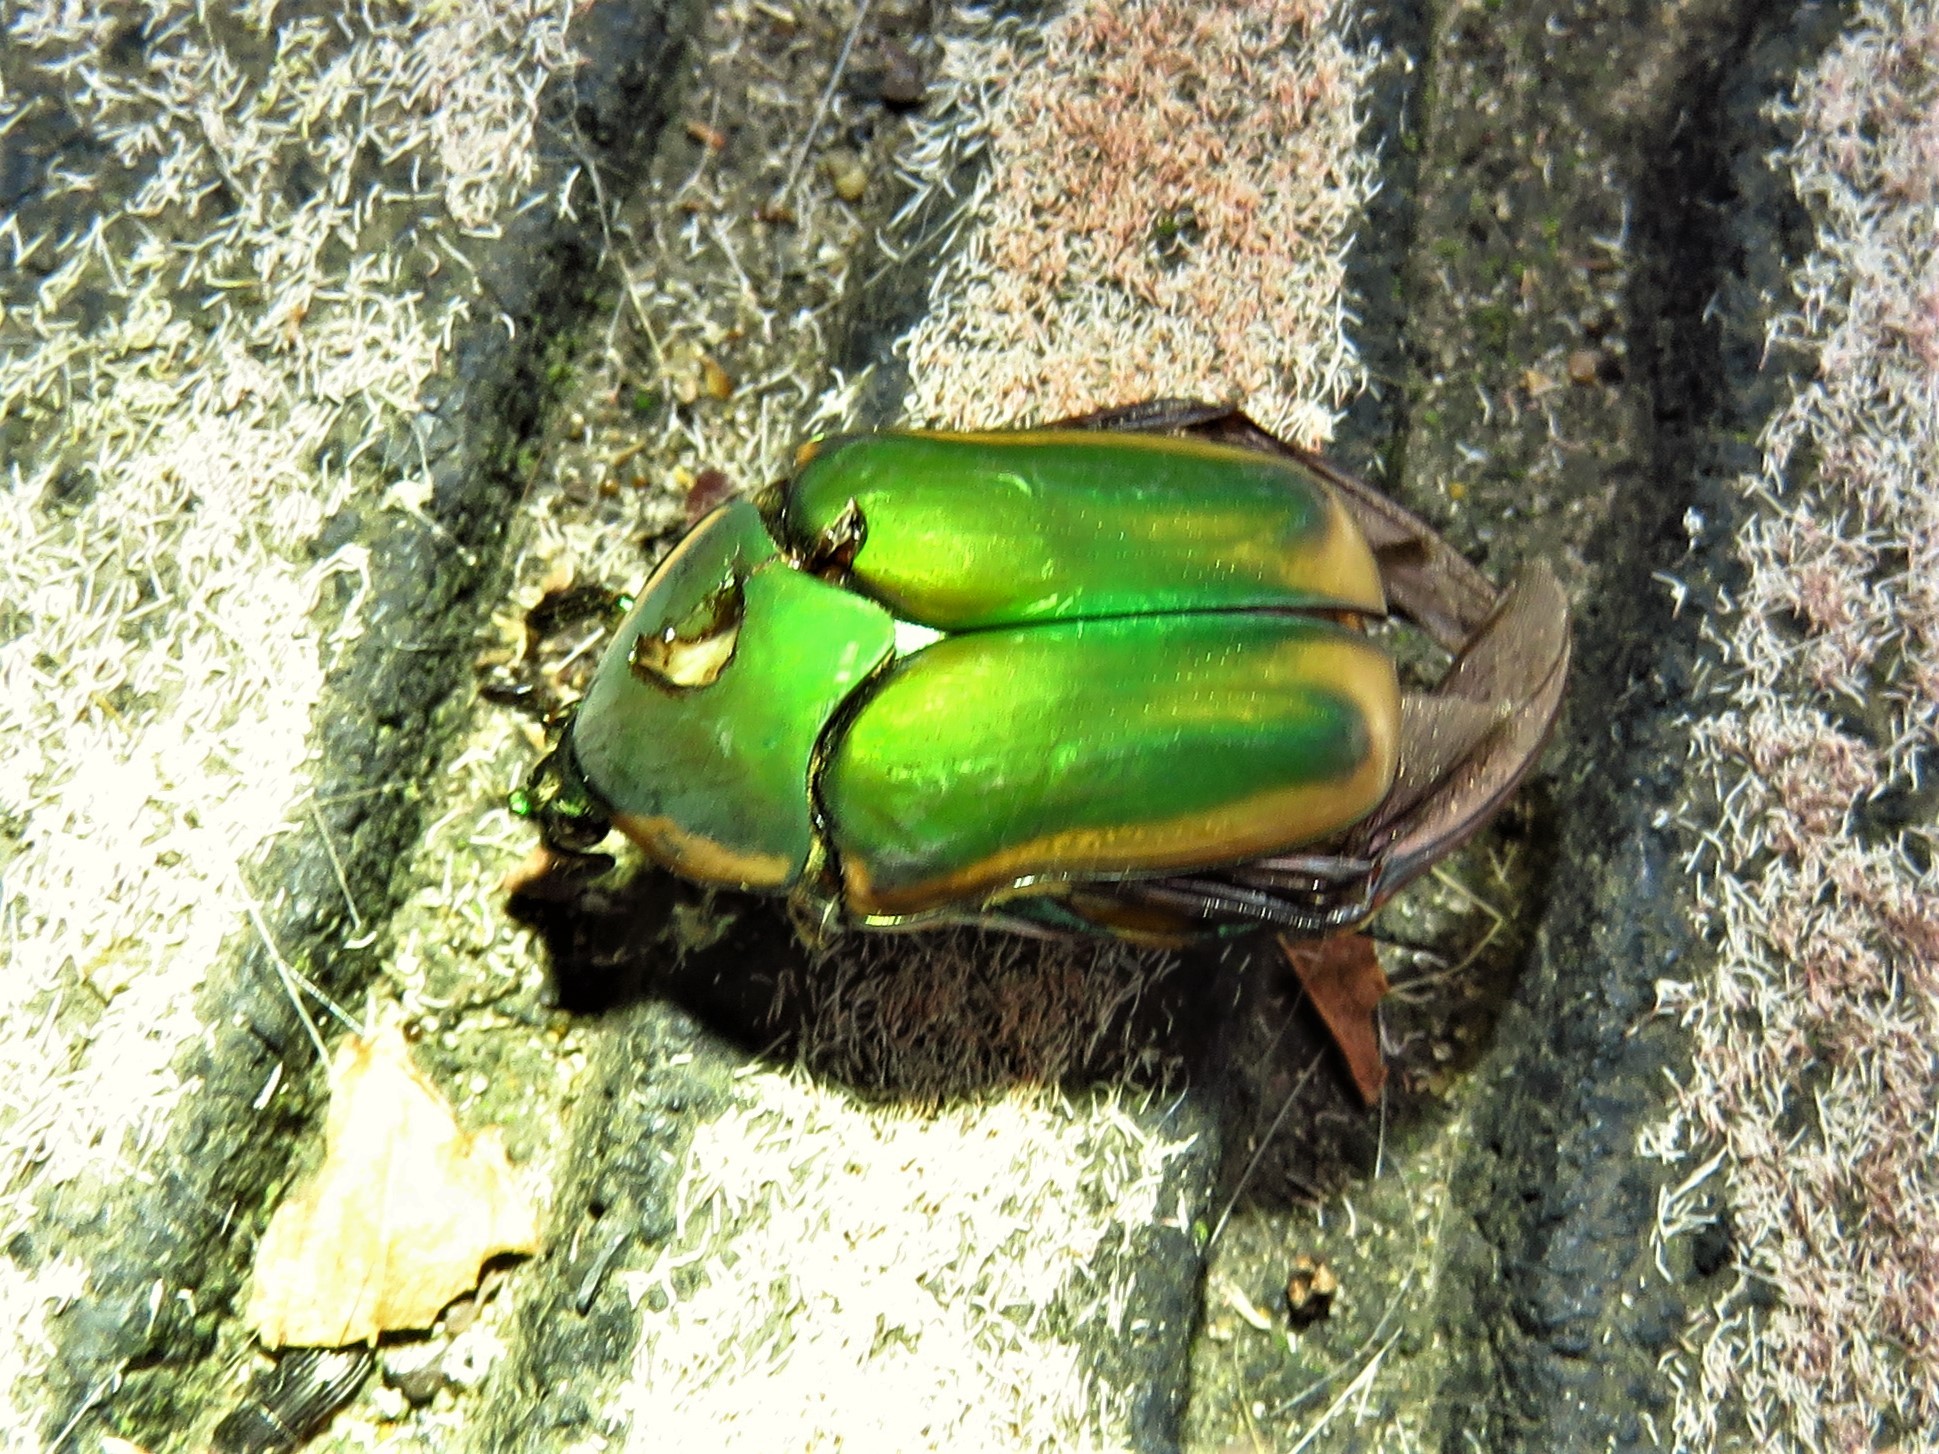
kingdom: Animalia
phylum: Arthropoda
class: Insecta
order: Coleoptera
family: Scarabaeidae
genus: Cotinis
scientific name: Cotinis nitida
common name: Common green june beetle
